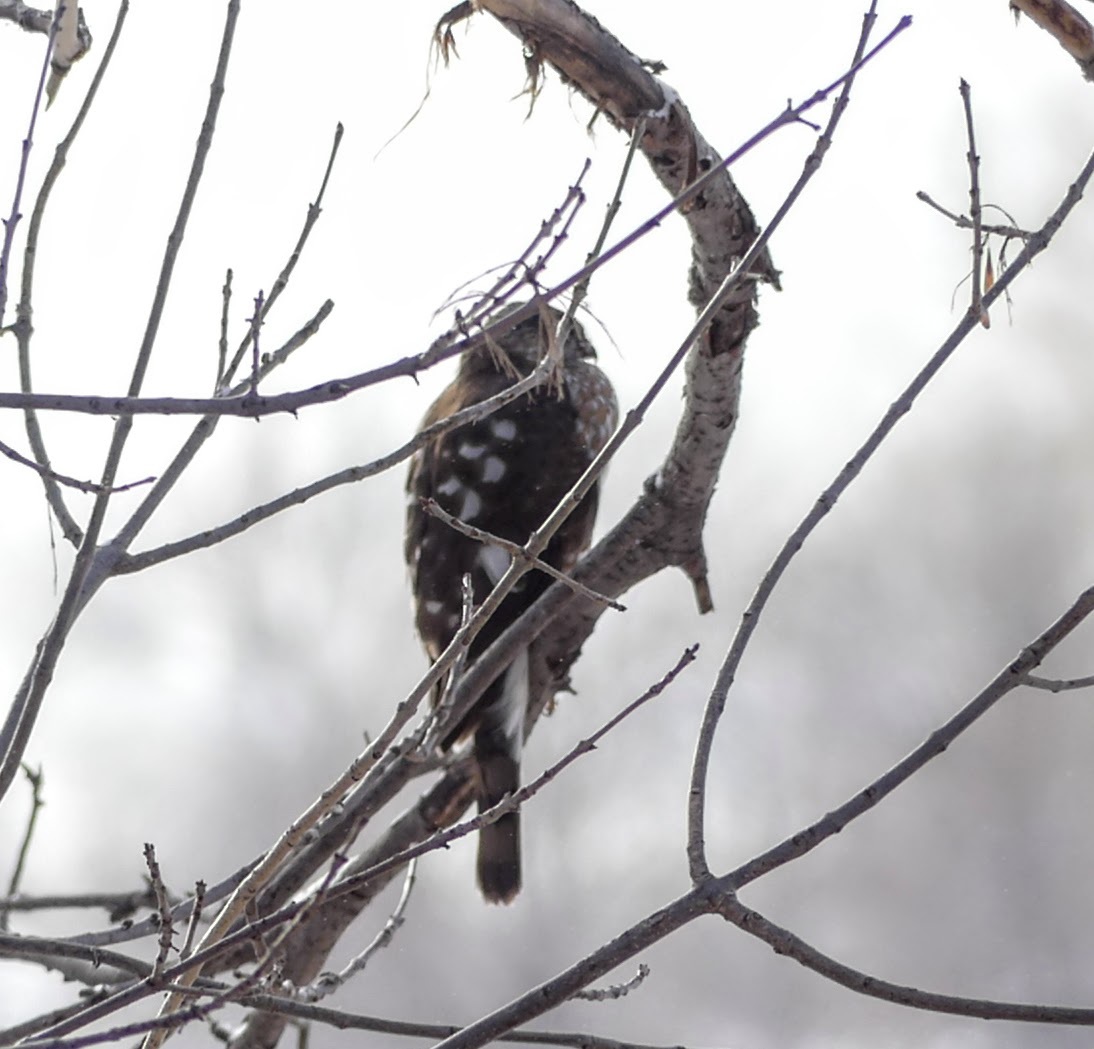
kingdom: Animalia
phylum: Chordata
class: Aves
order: Accipitriformes
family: Accipitridae
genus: Accipiter
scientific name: Accipiter striatus
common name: Sharp-shinned hawk
